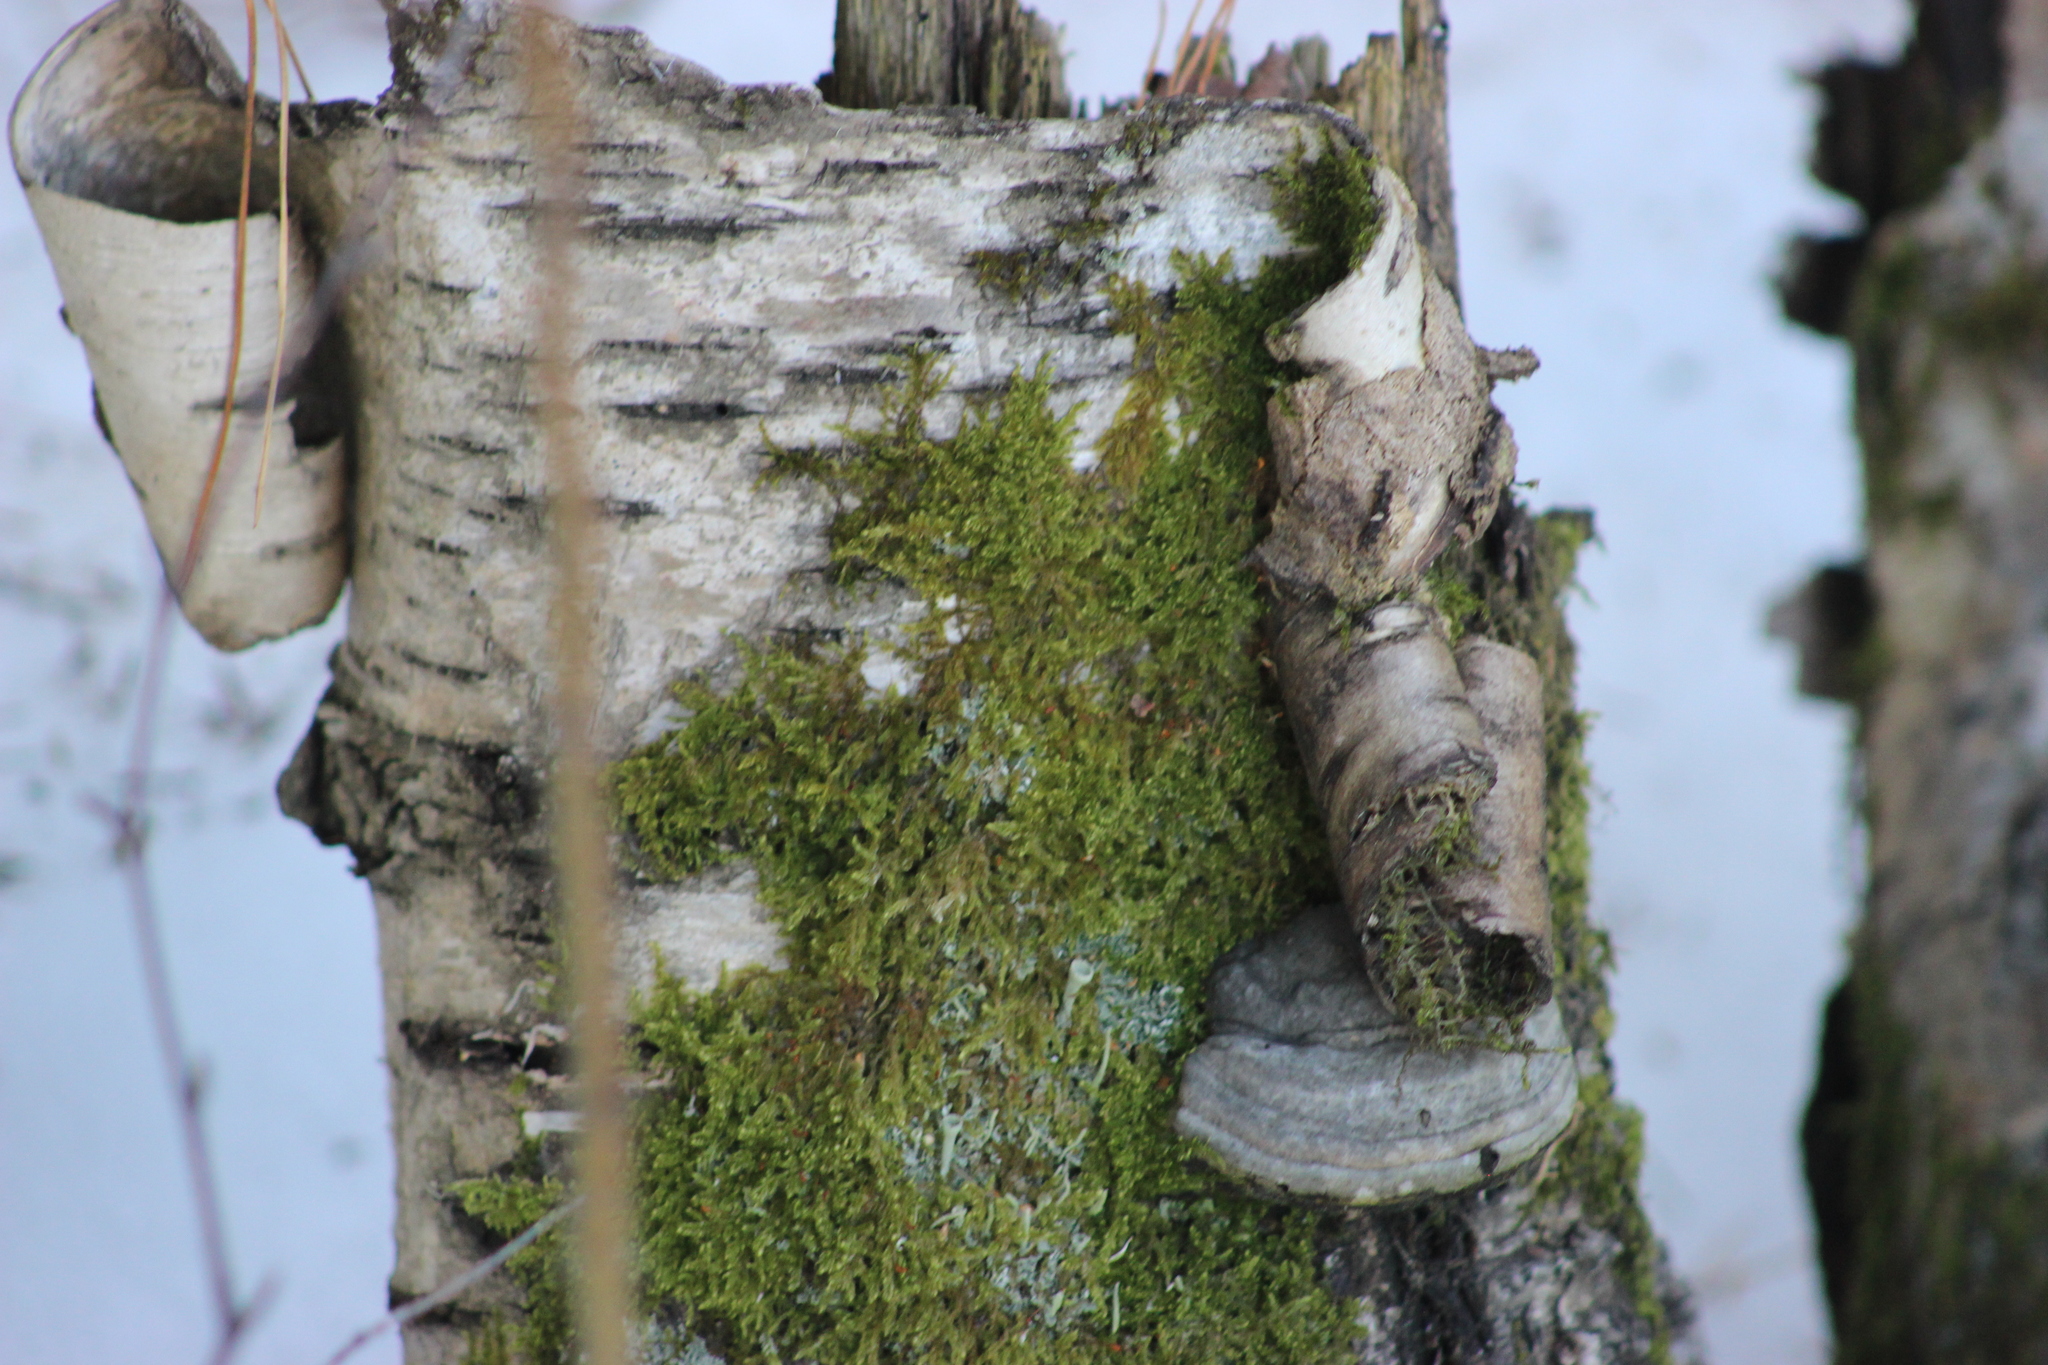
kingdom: Fungi
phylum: Basidiomycota
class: Agaricomycetes
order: Polyporales
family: Polyporaceae
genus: Fomes
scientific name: Fomes fomentarius
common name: Hoof fungus
